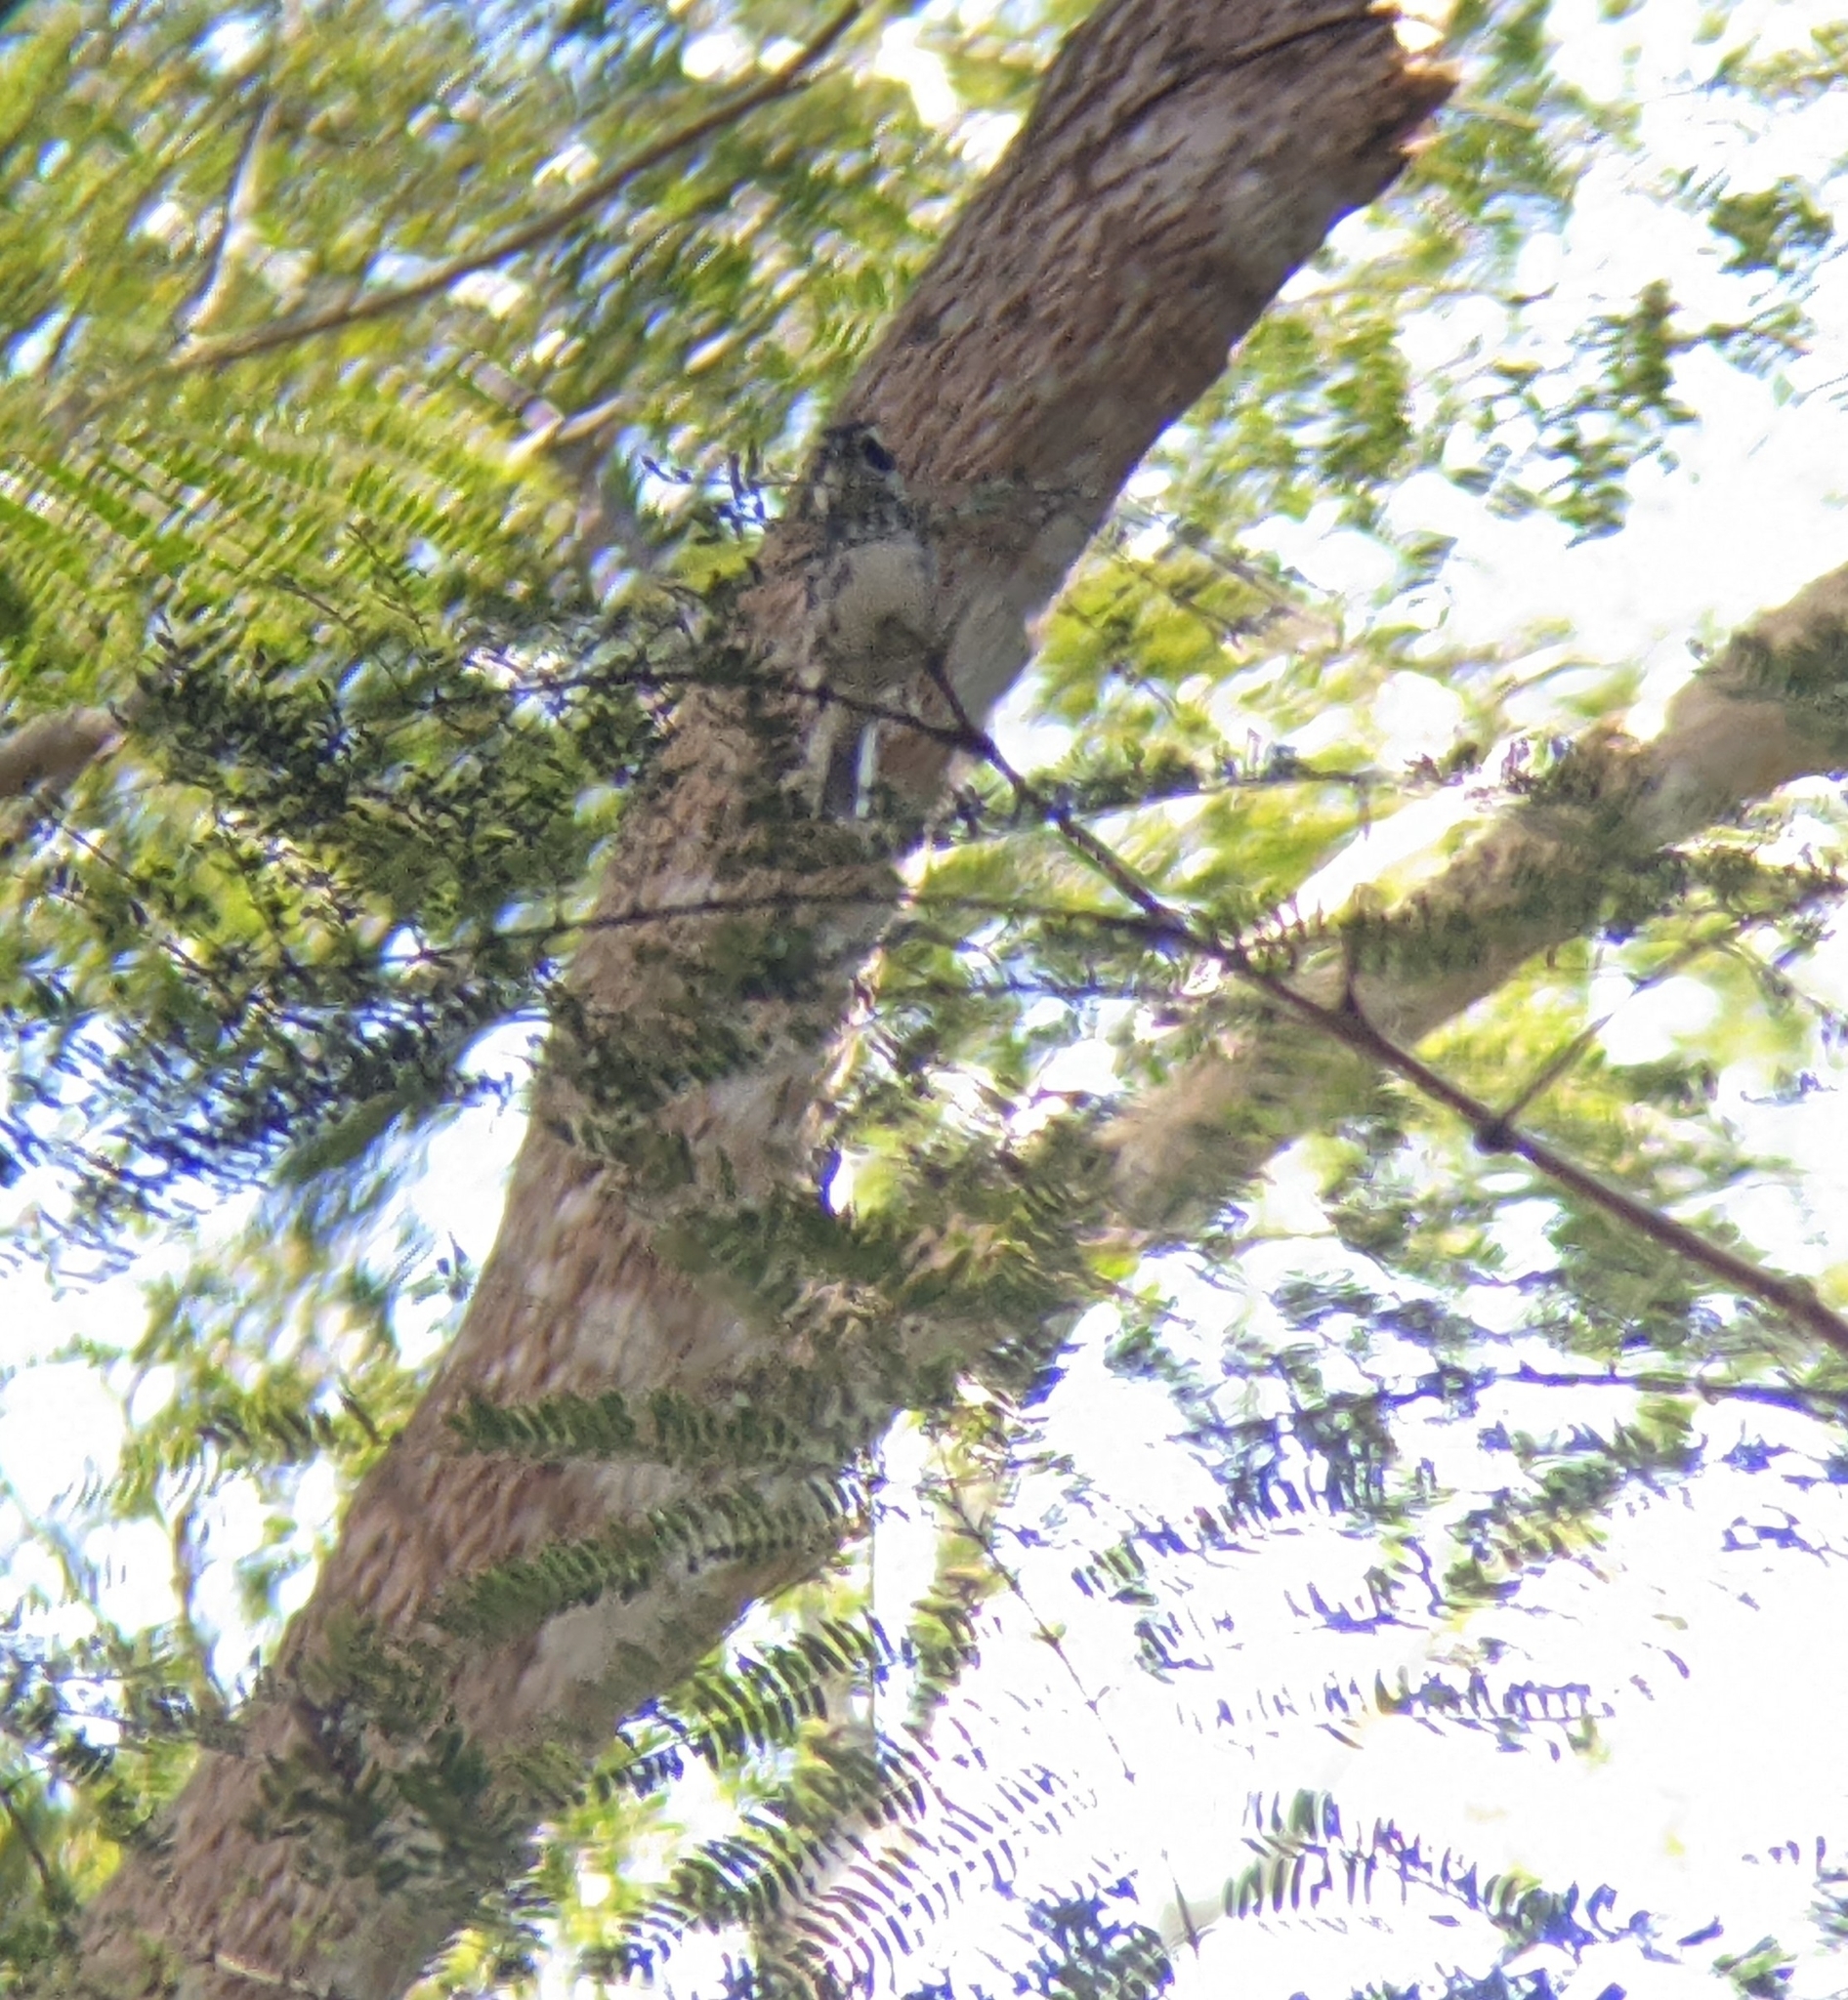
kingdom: Animalia
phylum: Chordata
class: Aves
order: Passeriformes
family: Parulidae
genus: Setophaga
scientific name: Setophaga nigrescens
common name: Black-throated gray warbler
